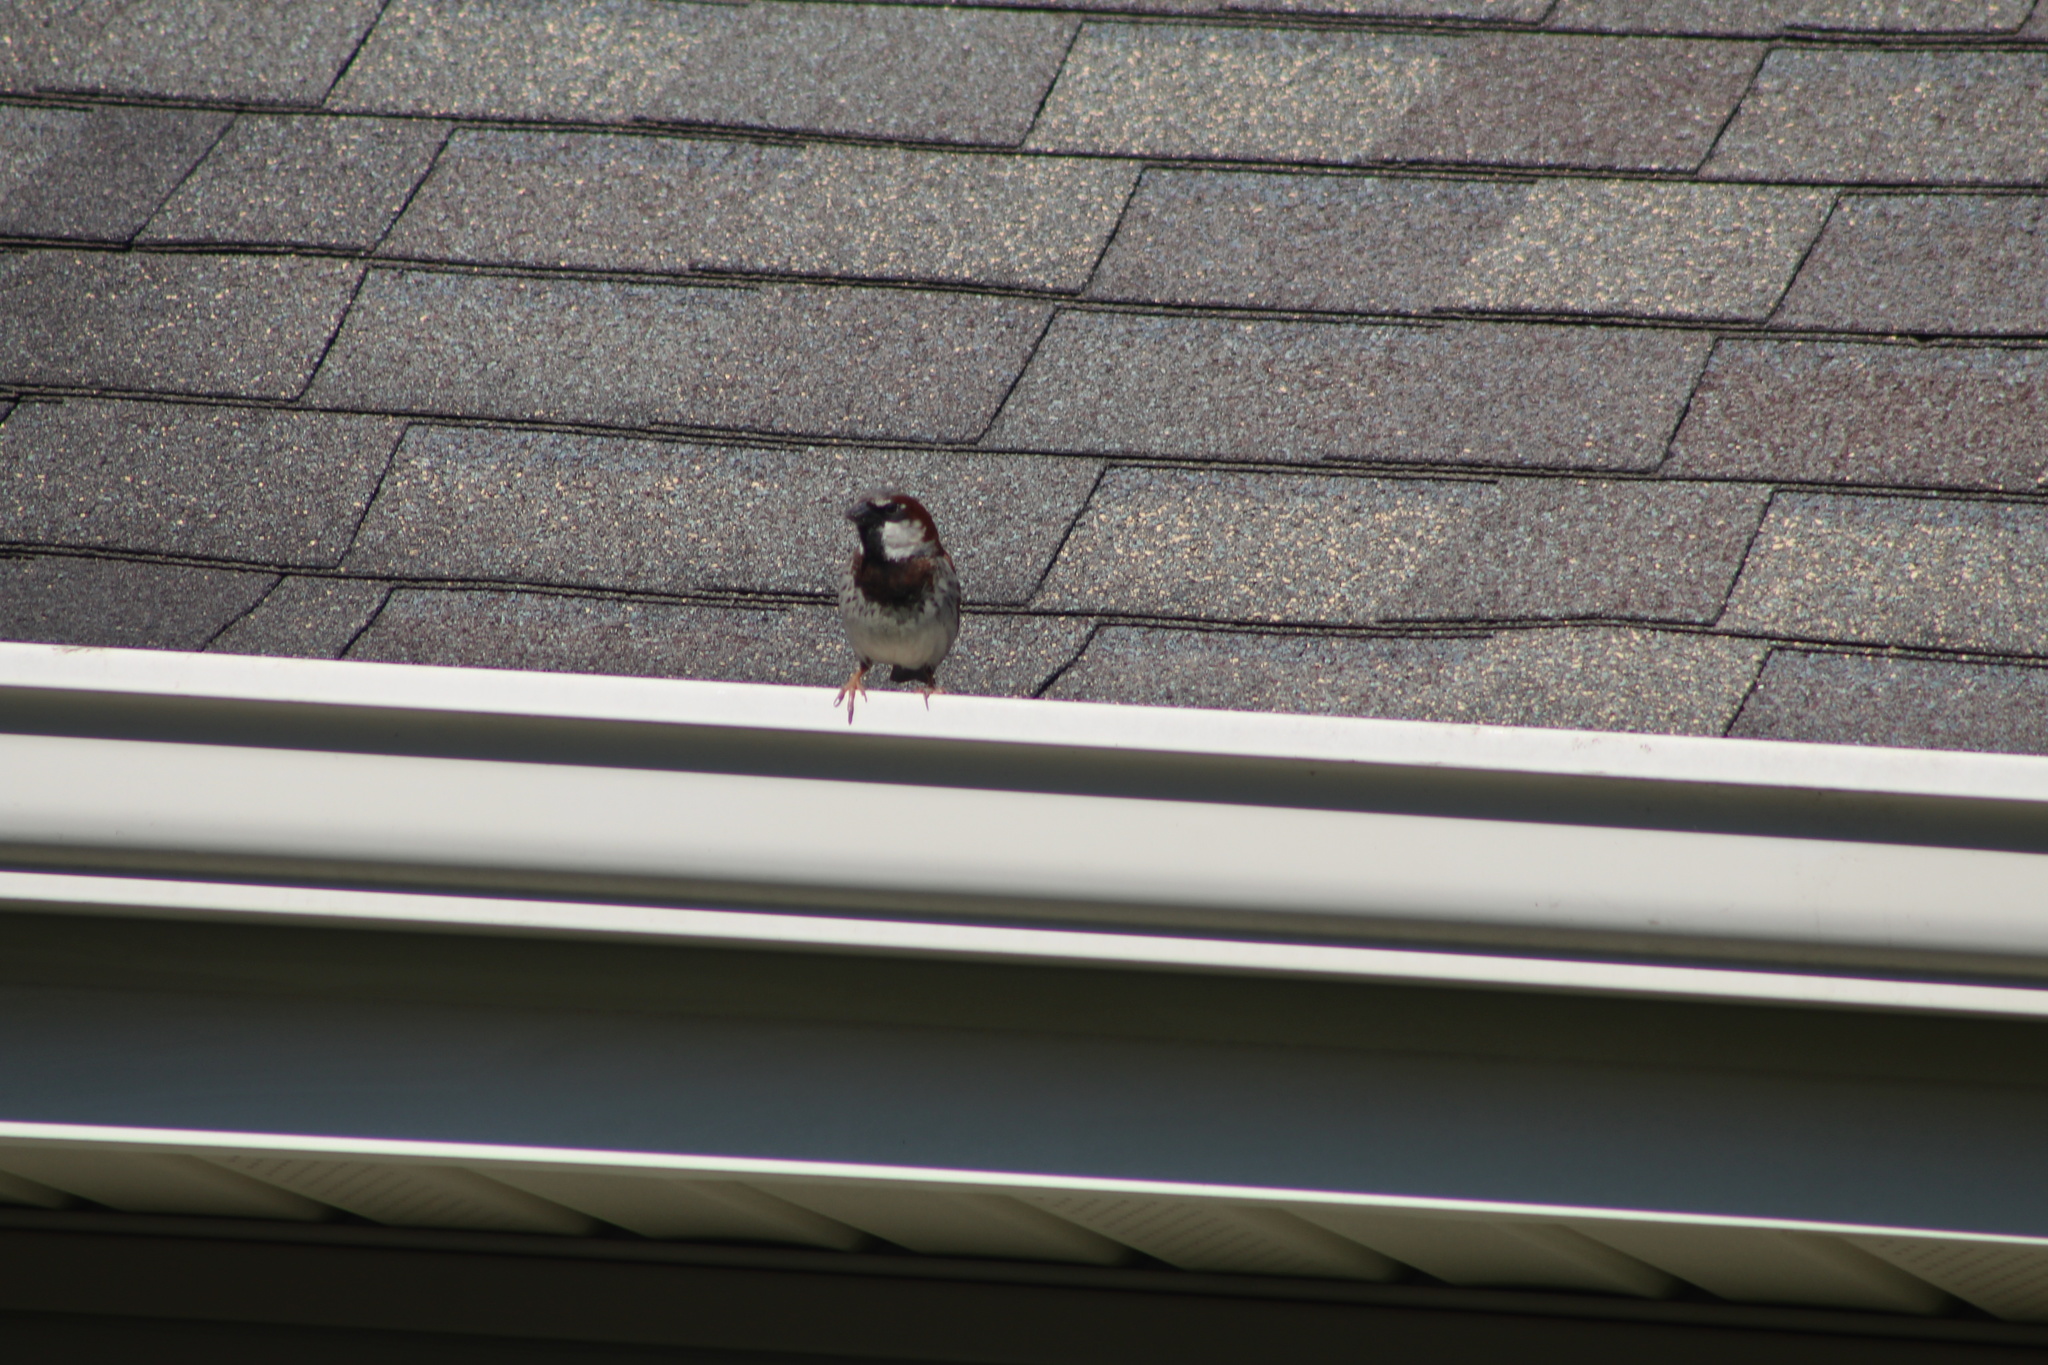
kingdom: Animalia
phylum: Chordata
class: Aves
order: Passeriformes
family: Passeridae
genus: Passer
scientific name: Passer domesticus
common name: House sparrow
